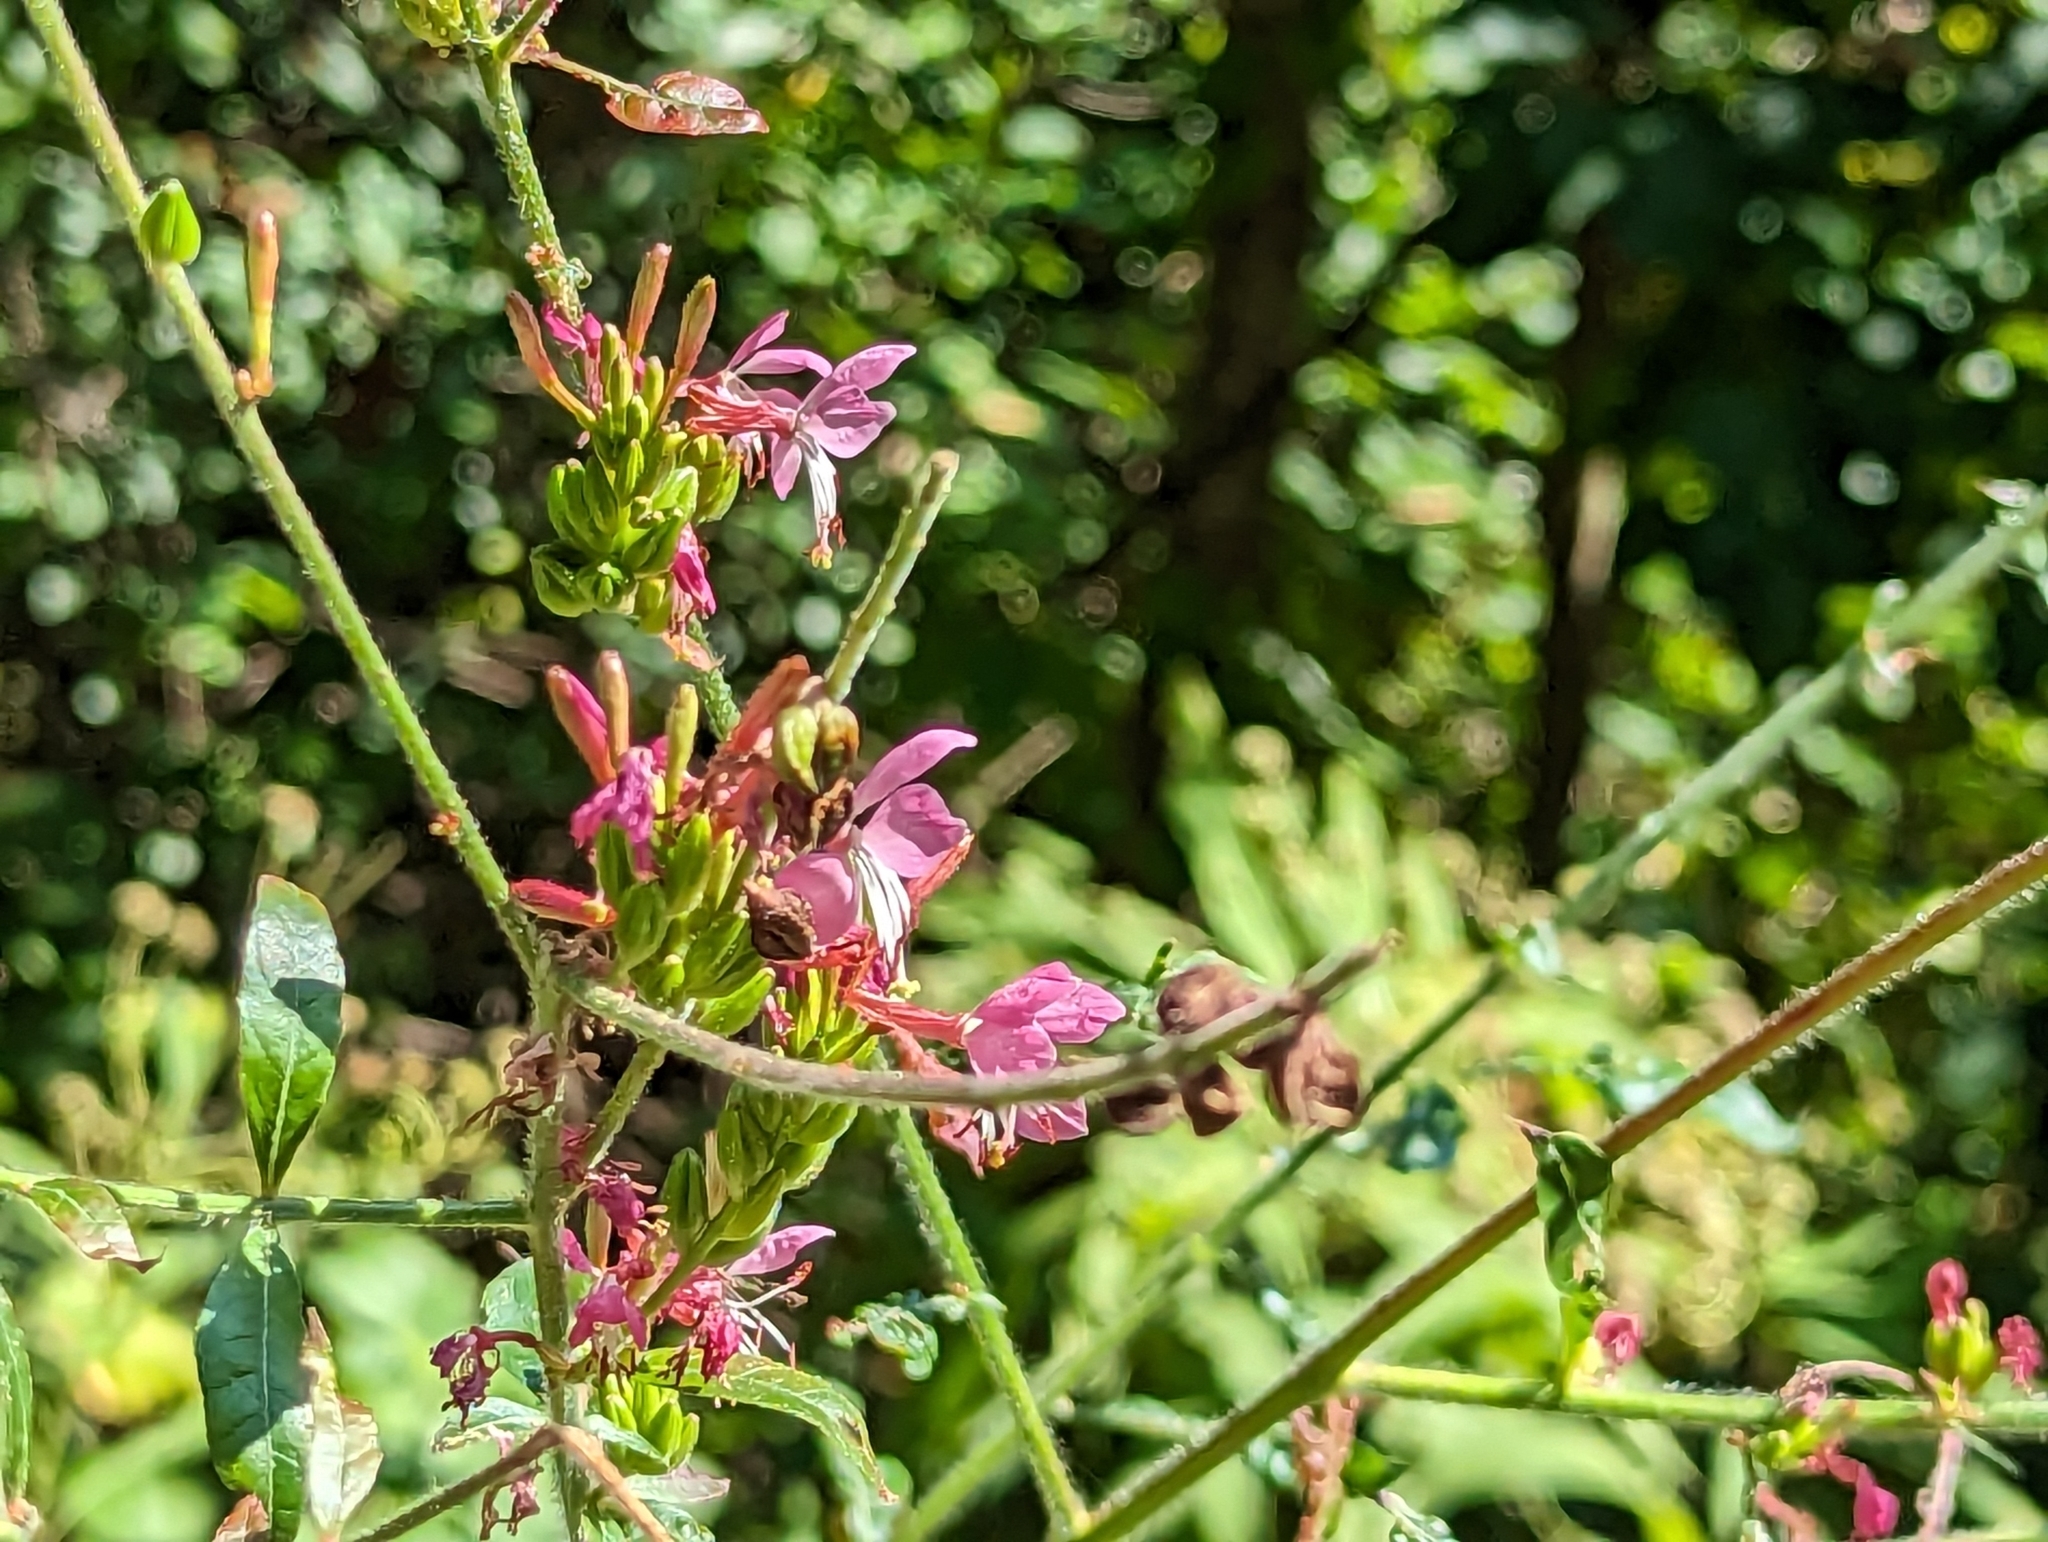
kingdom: Plantae
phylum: Tracheophyta
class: Magnoliopsida
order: Myrtales
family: Onagraceae
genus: Oenothera
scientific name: Oenothera gaura
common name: Biennial beeblossom
